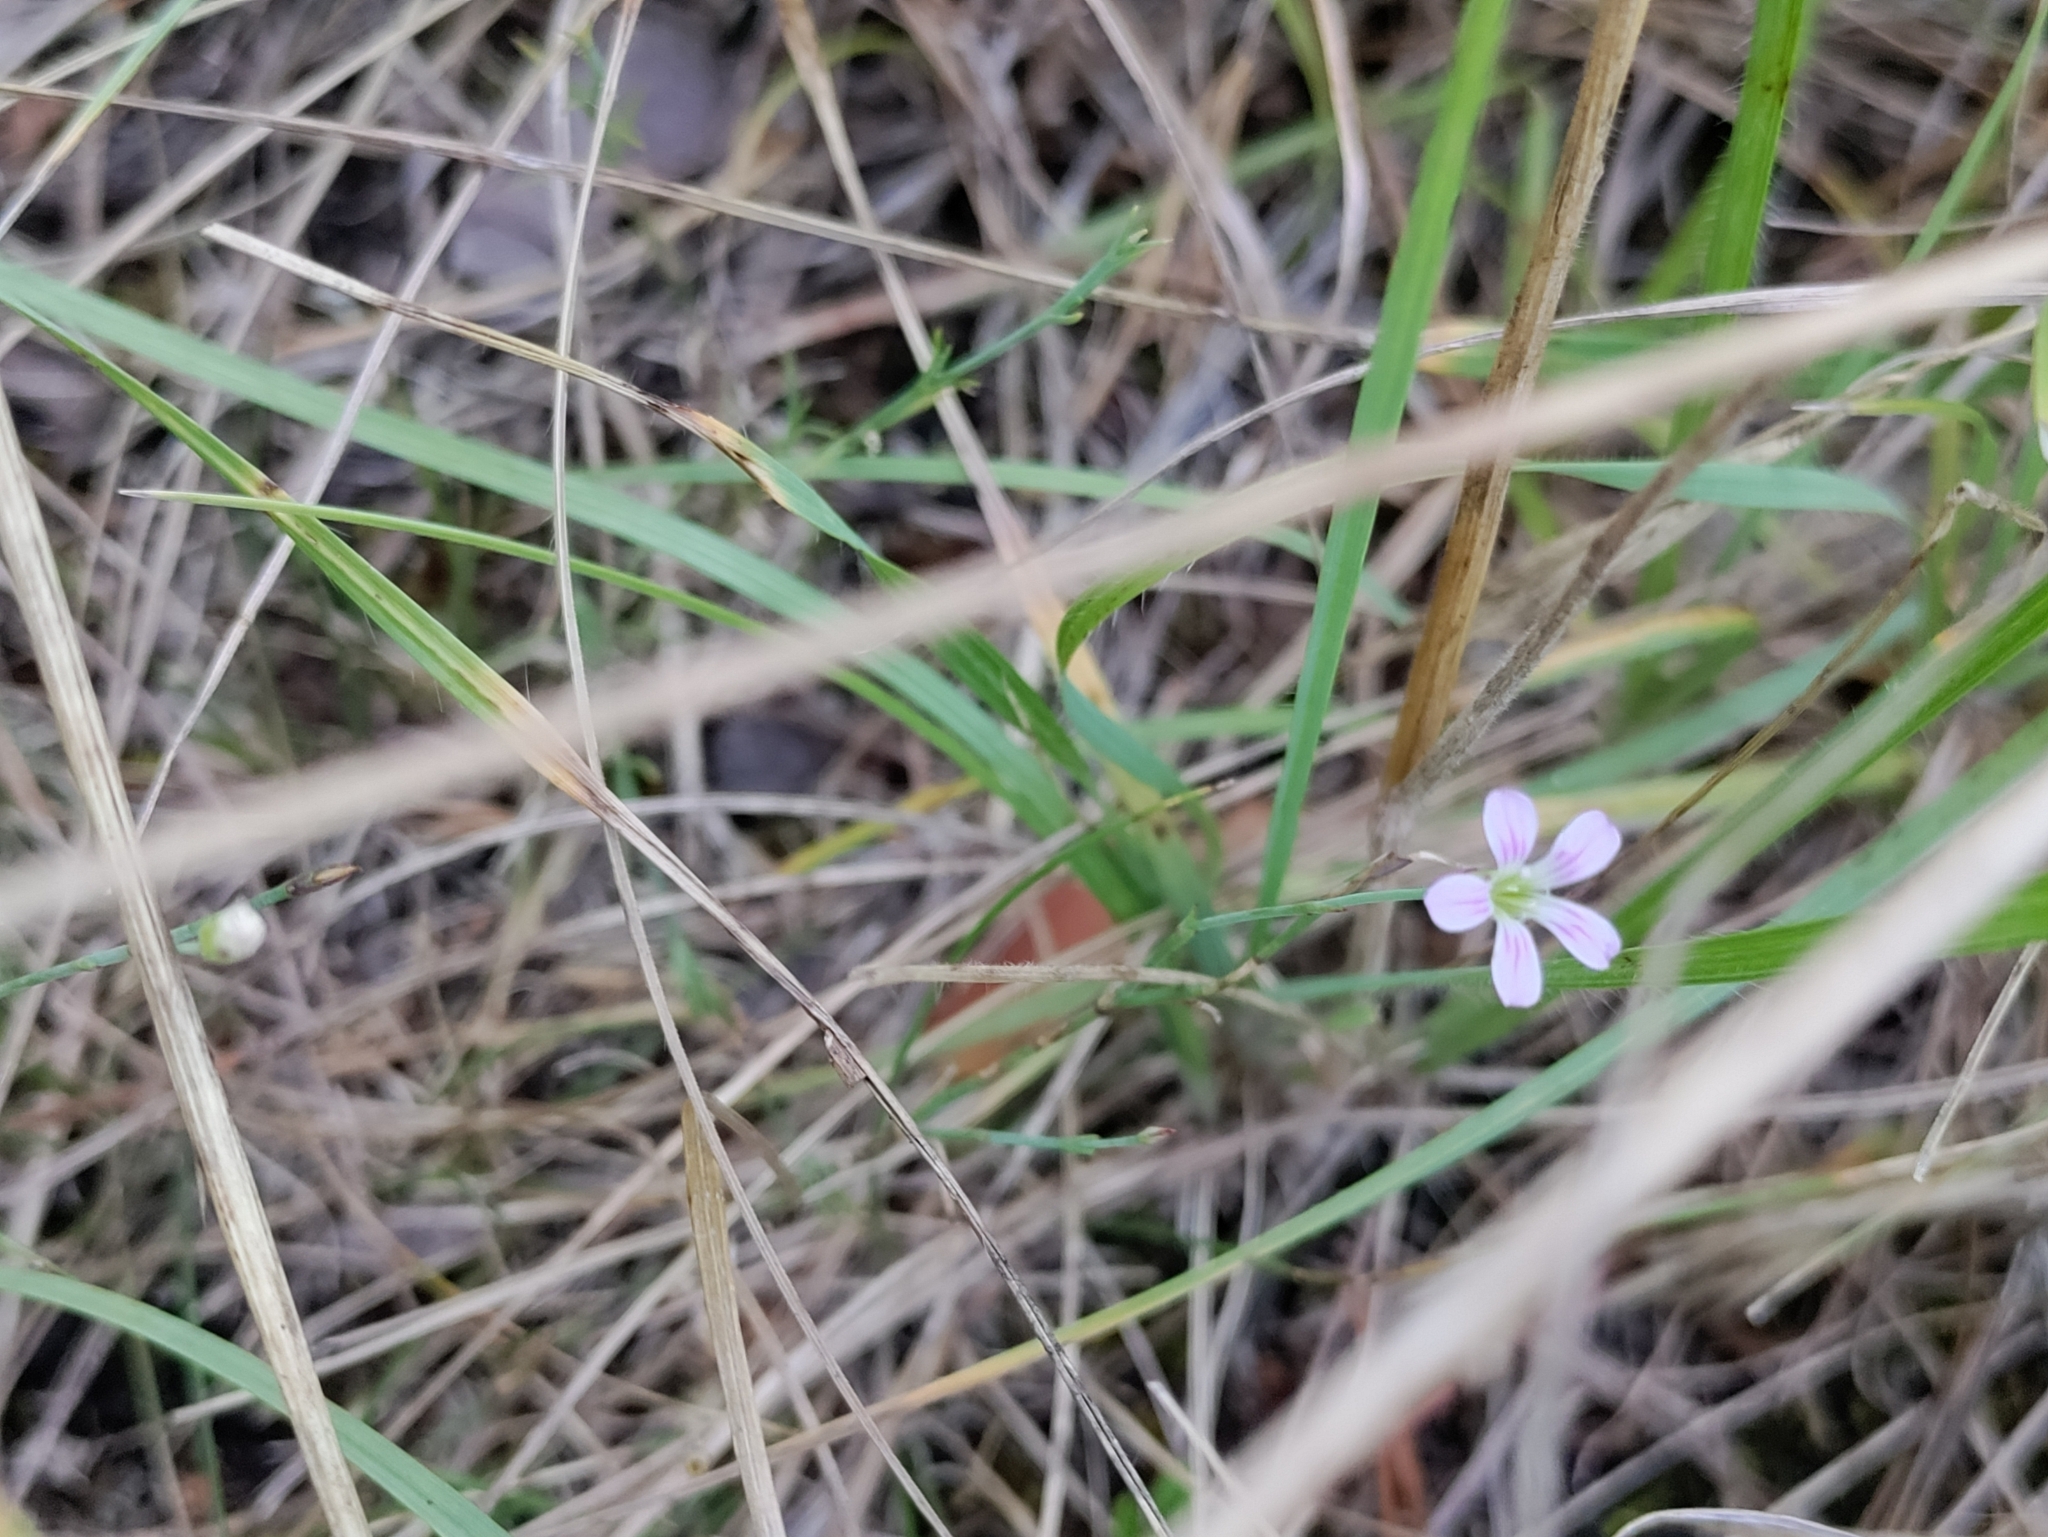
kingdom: Plantae
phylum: Tracheophyta
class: Magnoliopsida
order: Caryophyllales
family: Caryophyllaceae
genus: Petrorhagia
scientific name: Petrorhagia saxifraga
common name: Tunicflower
